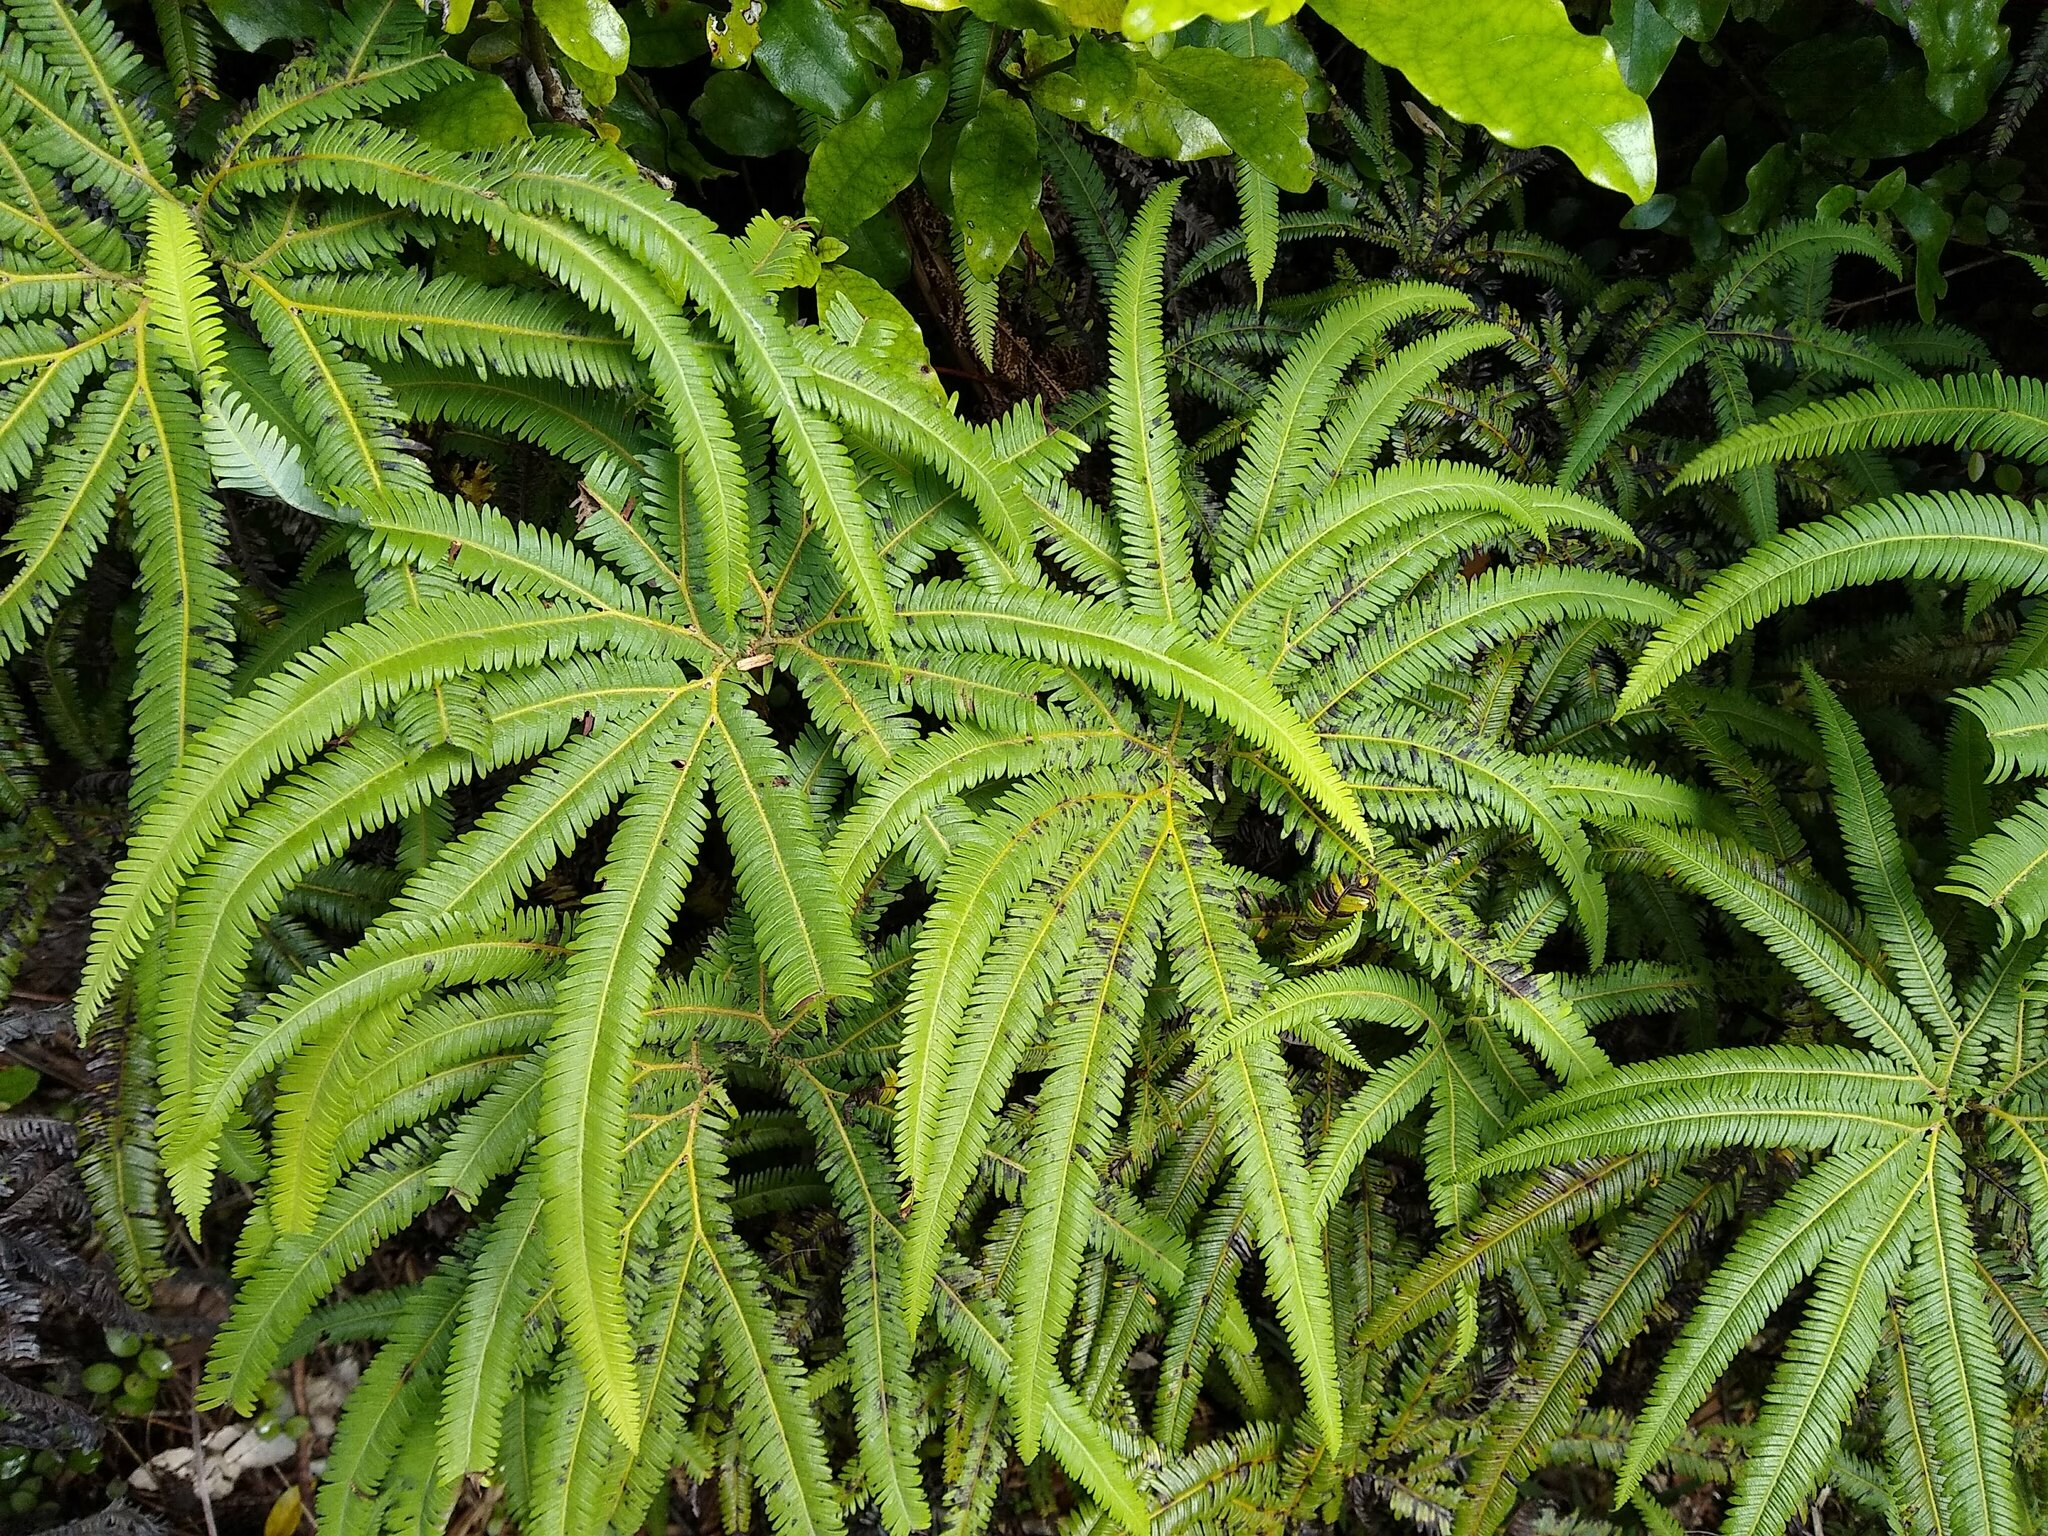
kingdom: Plantae
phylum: Tracheophyta
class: Polypodiopsida
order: Gleicheniales
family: Gleicheniaceae
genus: Sticherus
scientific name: Sticherus cunninghamii
